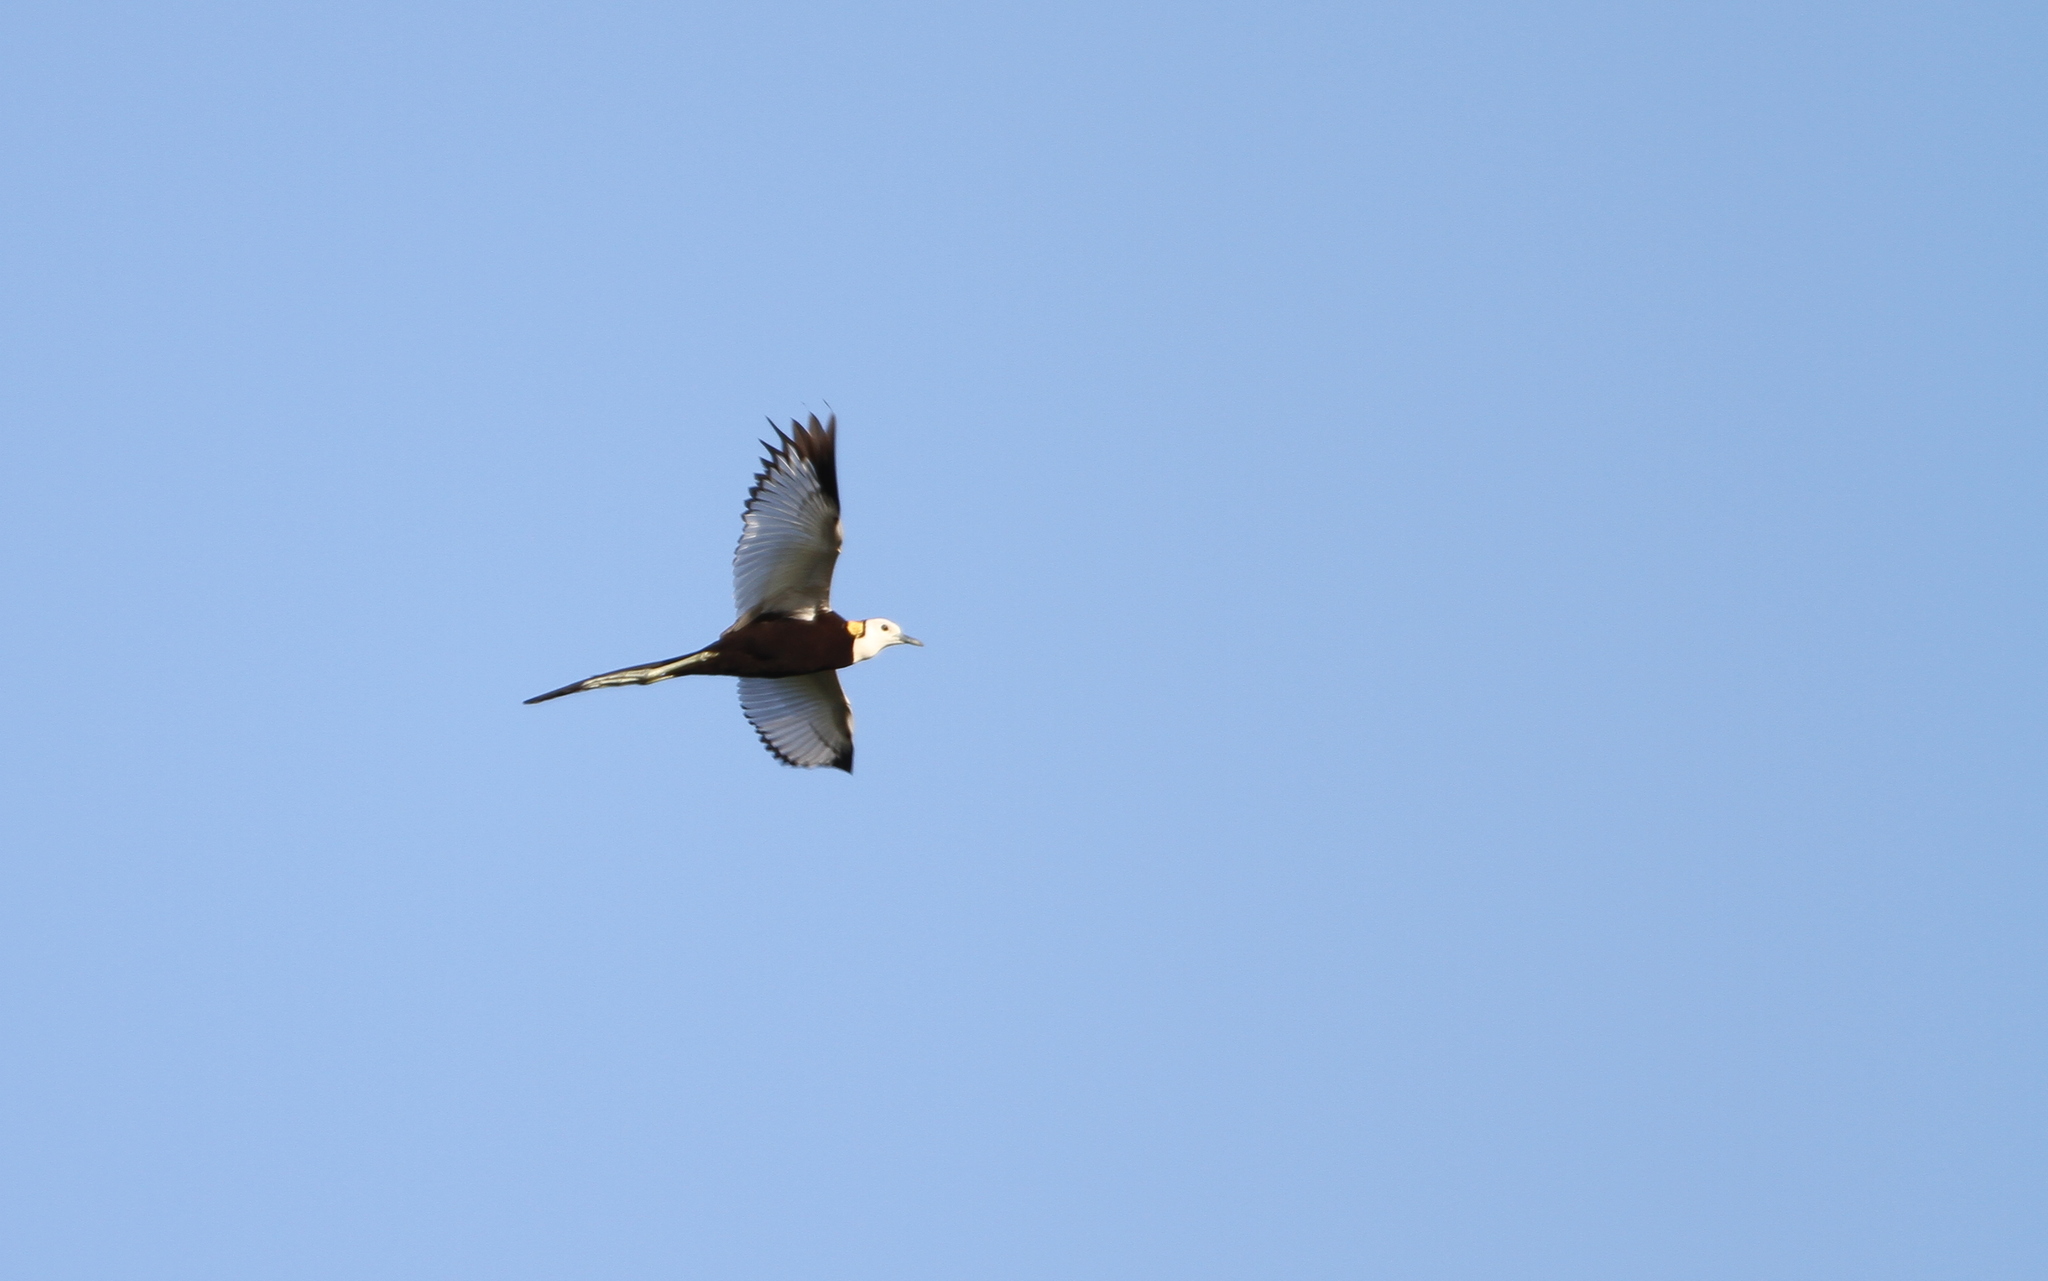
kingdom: Animalia
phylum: Chordata
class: Aves
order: Charadriiformes
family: Jacanidae
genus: Hydrophasianus
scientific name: Hydrophasianus chirurgus
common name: Pheasant-tailed jacana
